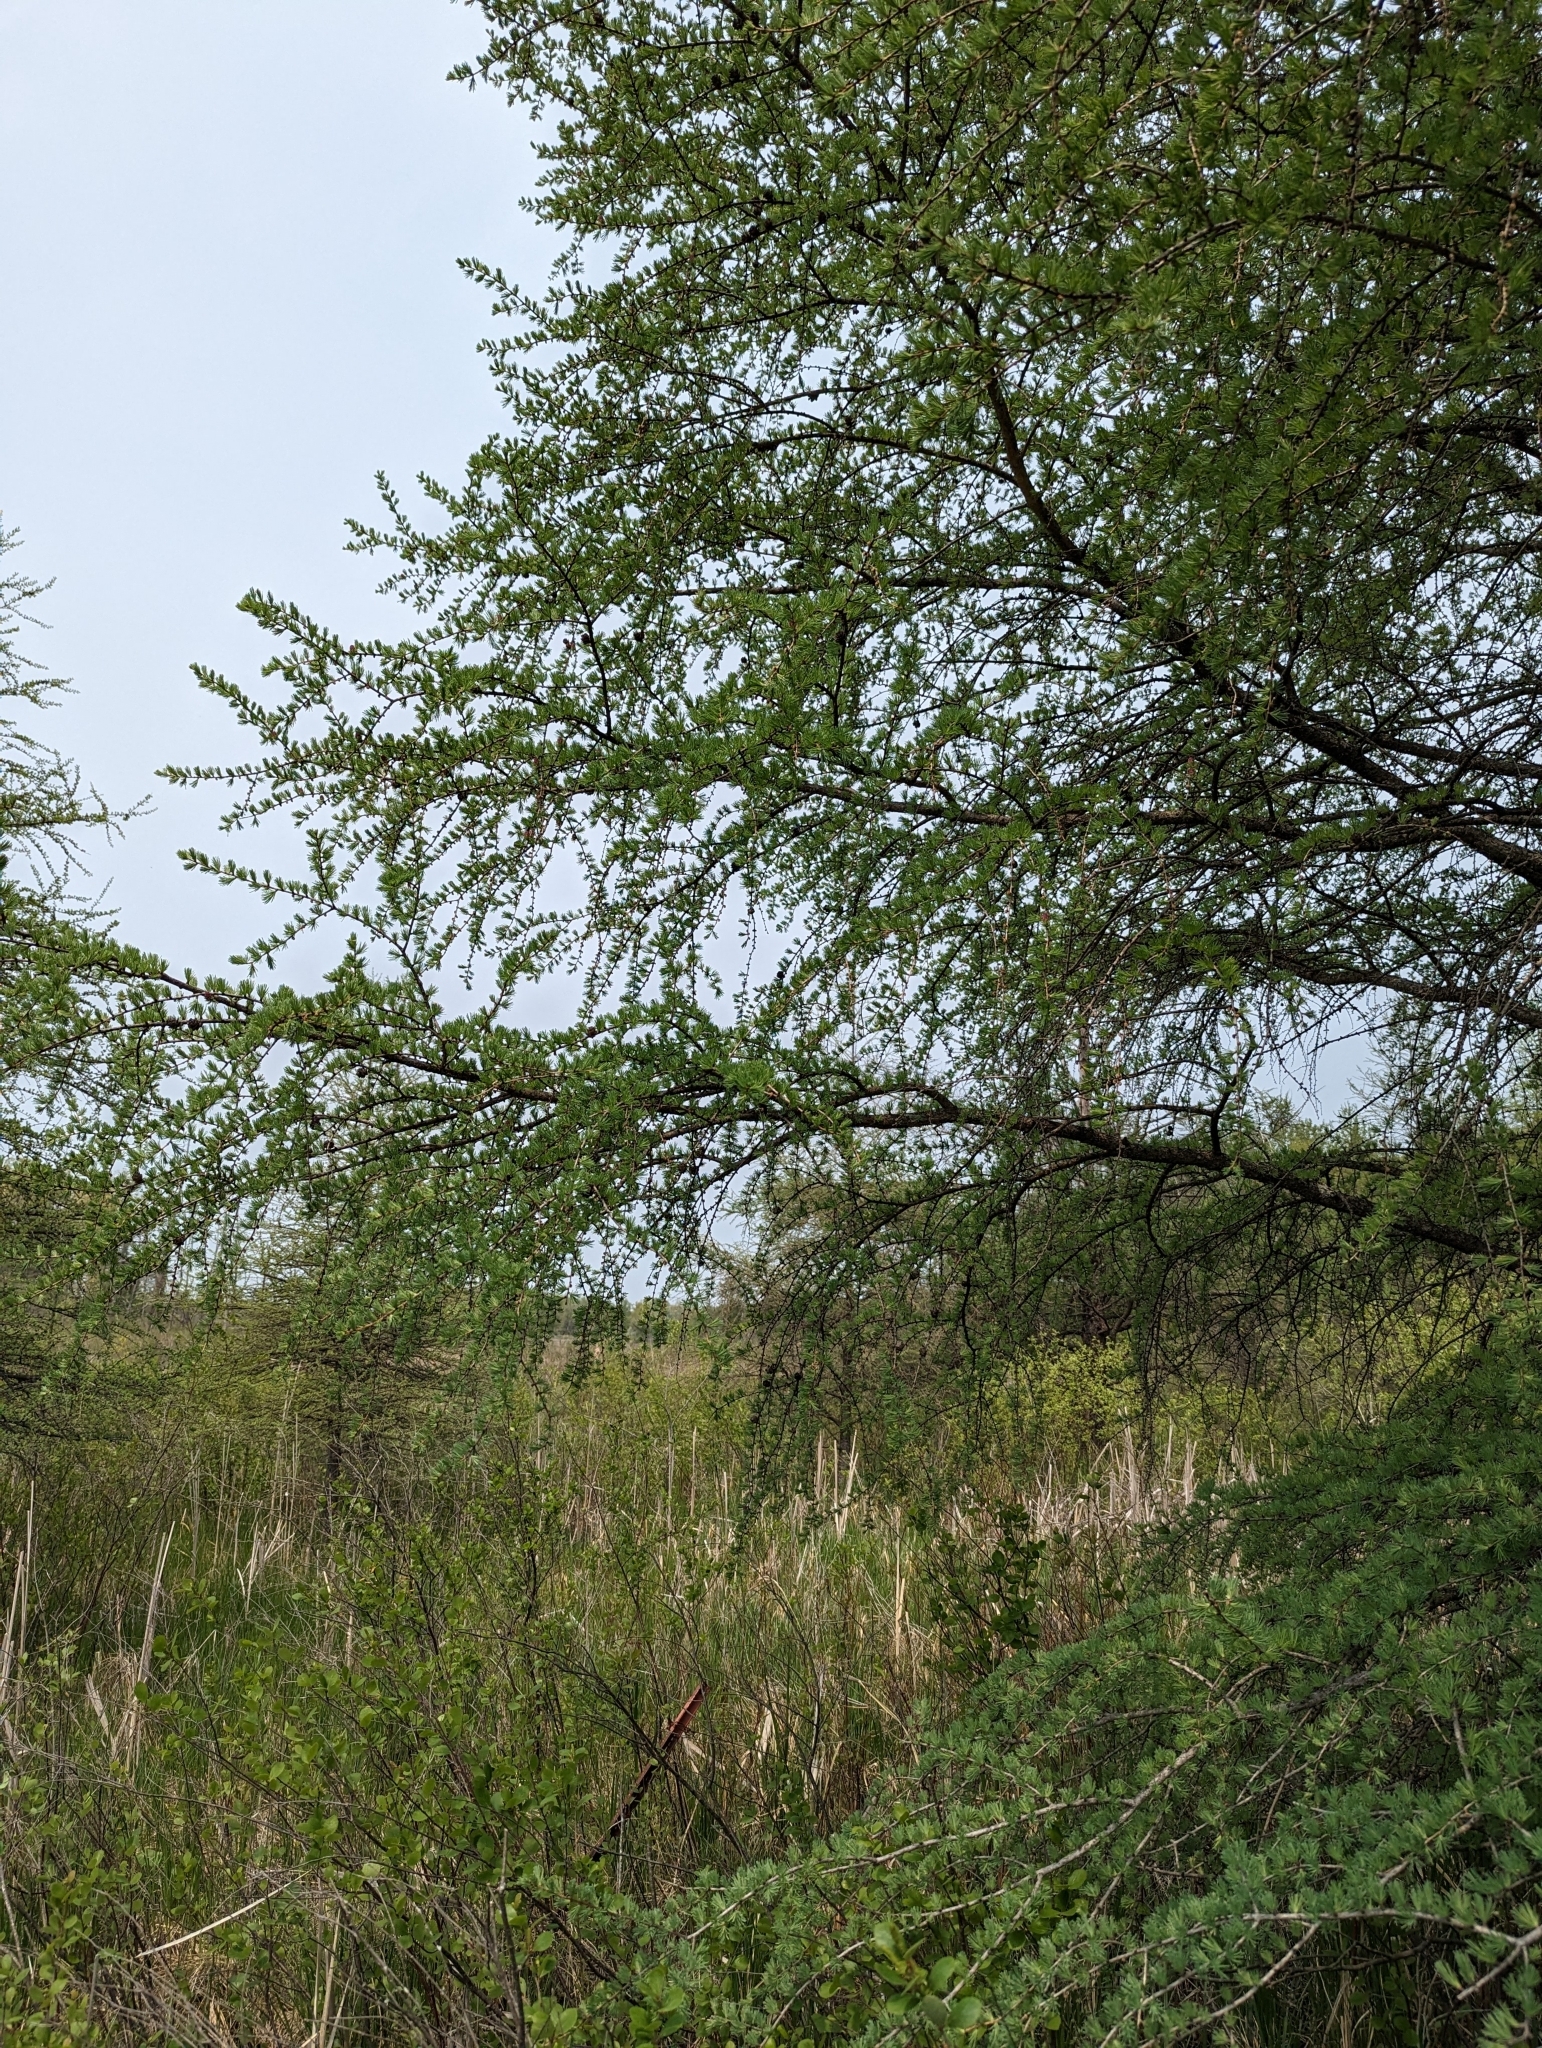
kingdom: Plantae
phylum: Tracheophyta
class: Pinopsida
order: Pinales
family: Pinaceae
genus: Larix
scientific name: Larix laricina
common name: American larch
